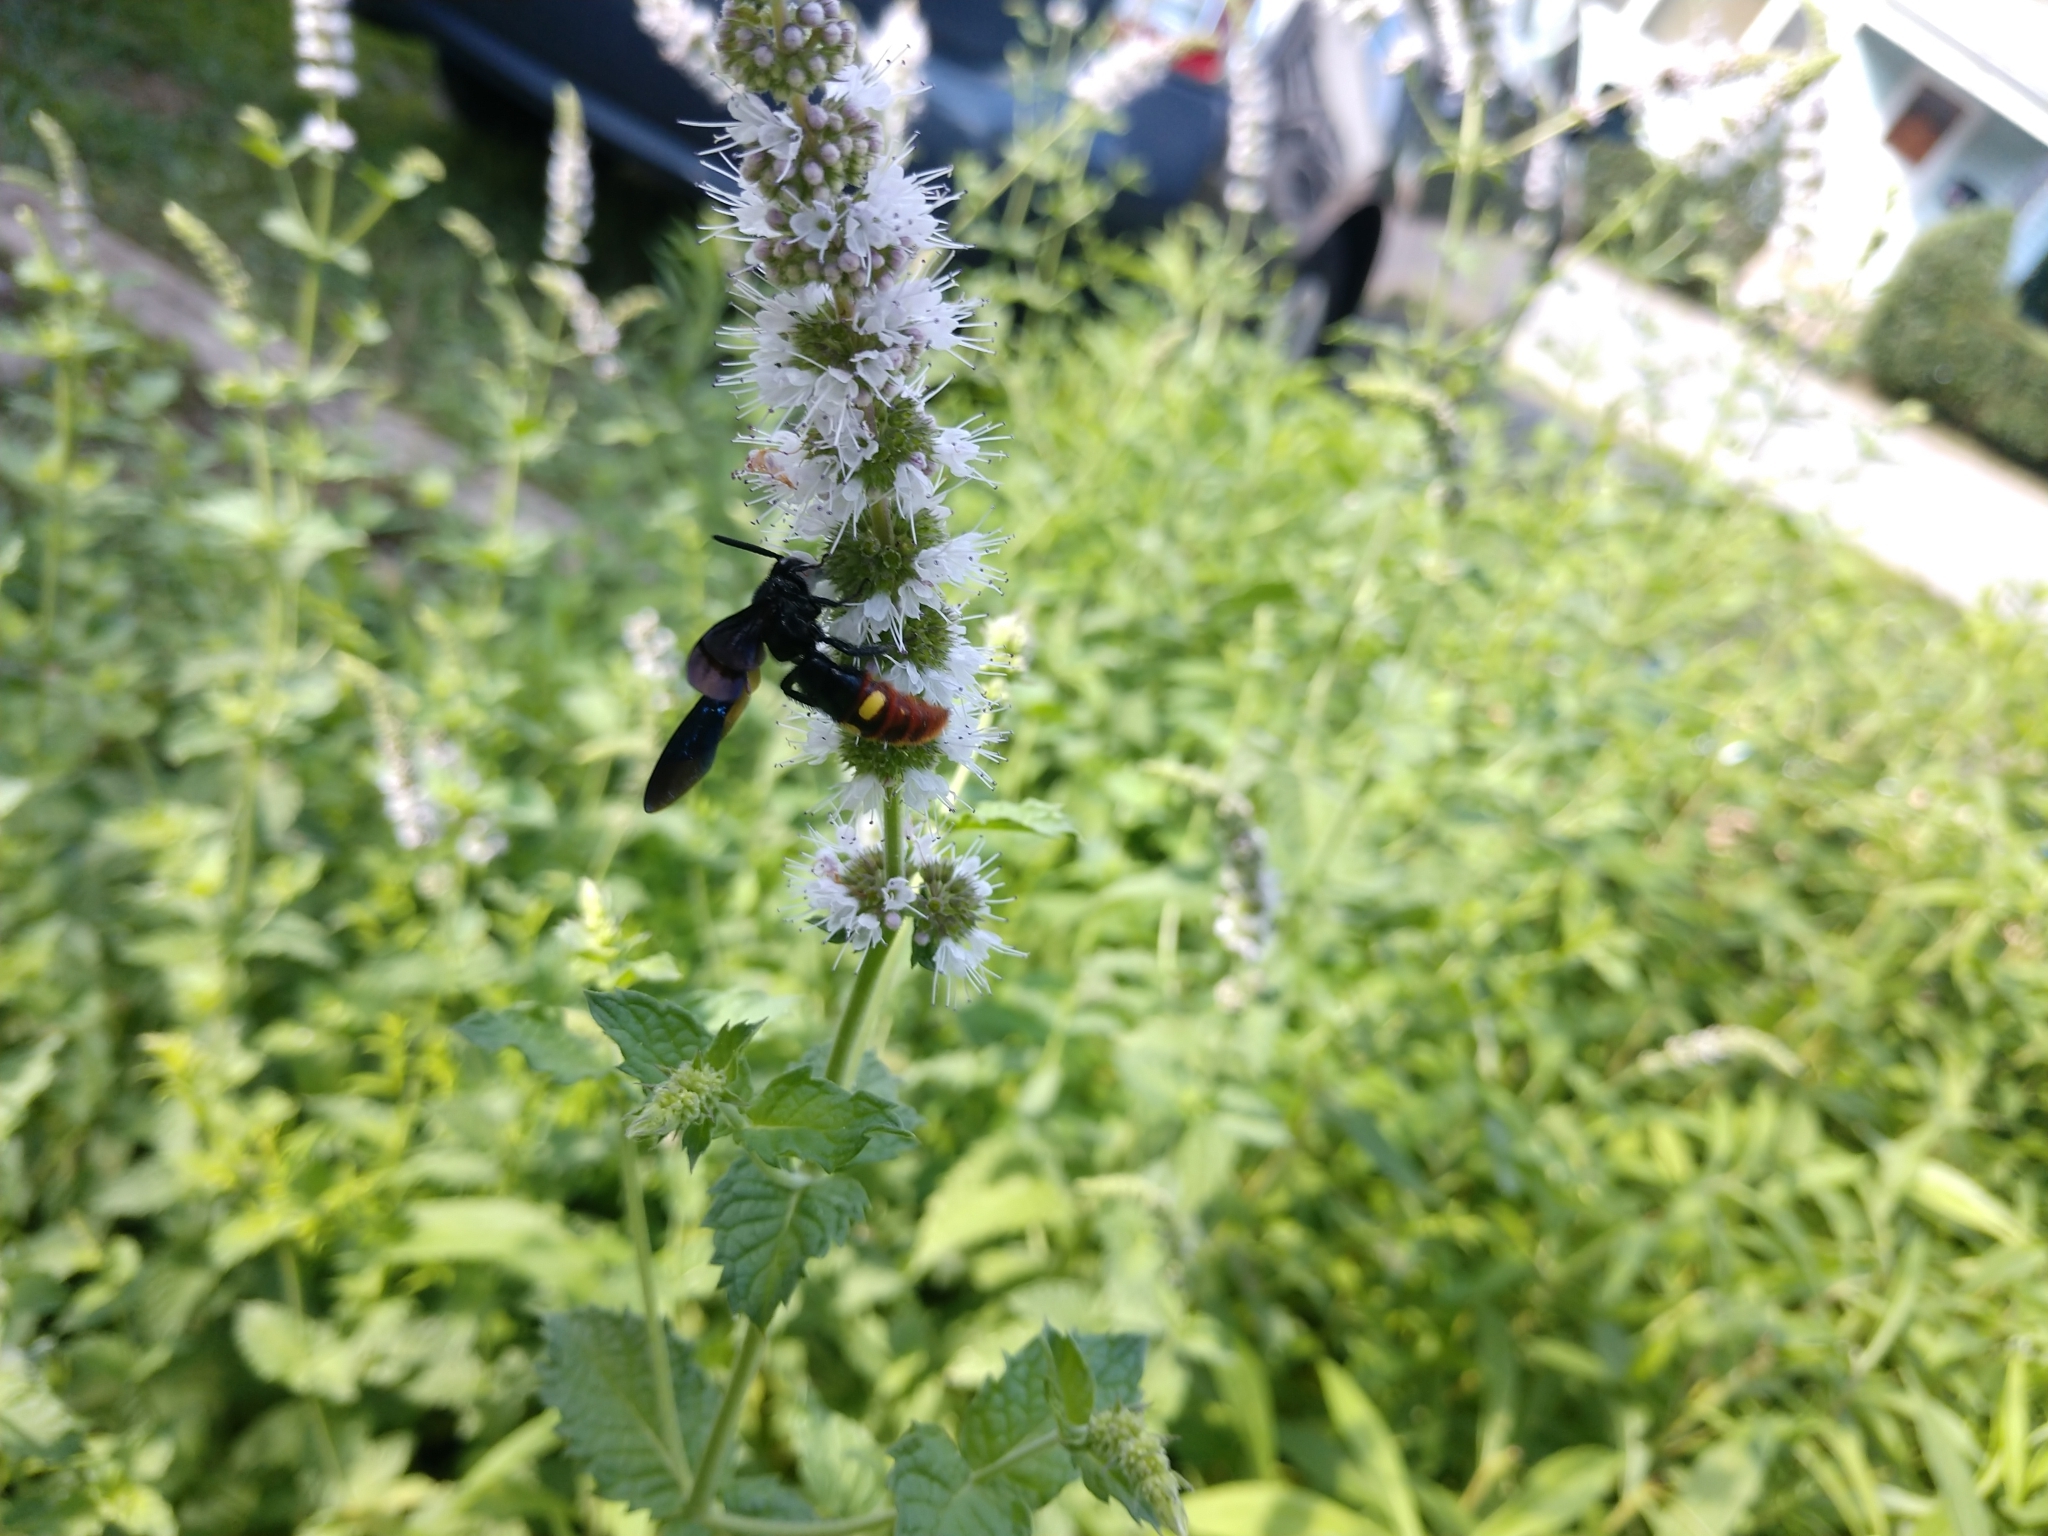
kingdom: Animalia
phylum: Arthropoda
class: Insecta
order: Hymenoptera
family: Scoliidae
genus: Scolia
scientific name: Scolia dubia
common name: Blue-winged scoliid wasp
